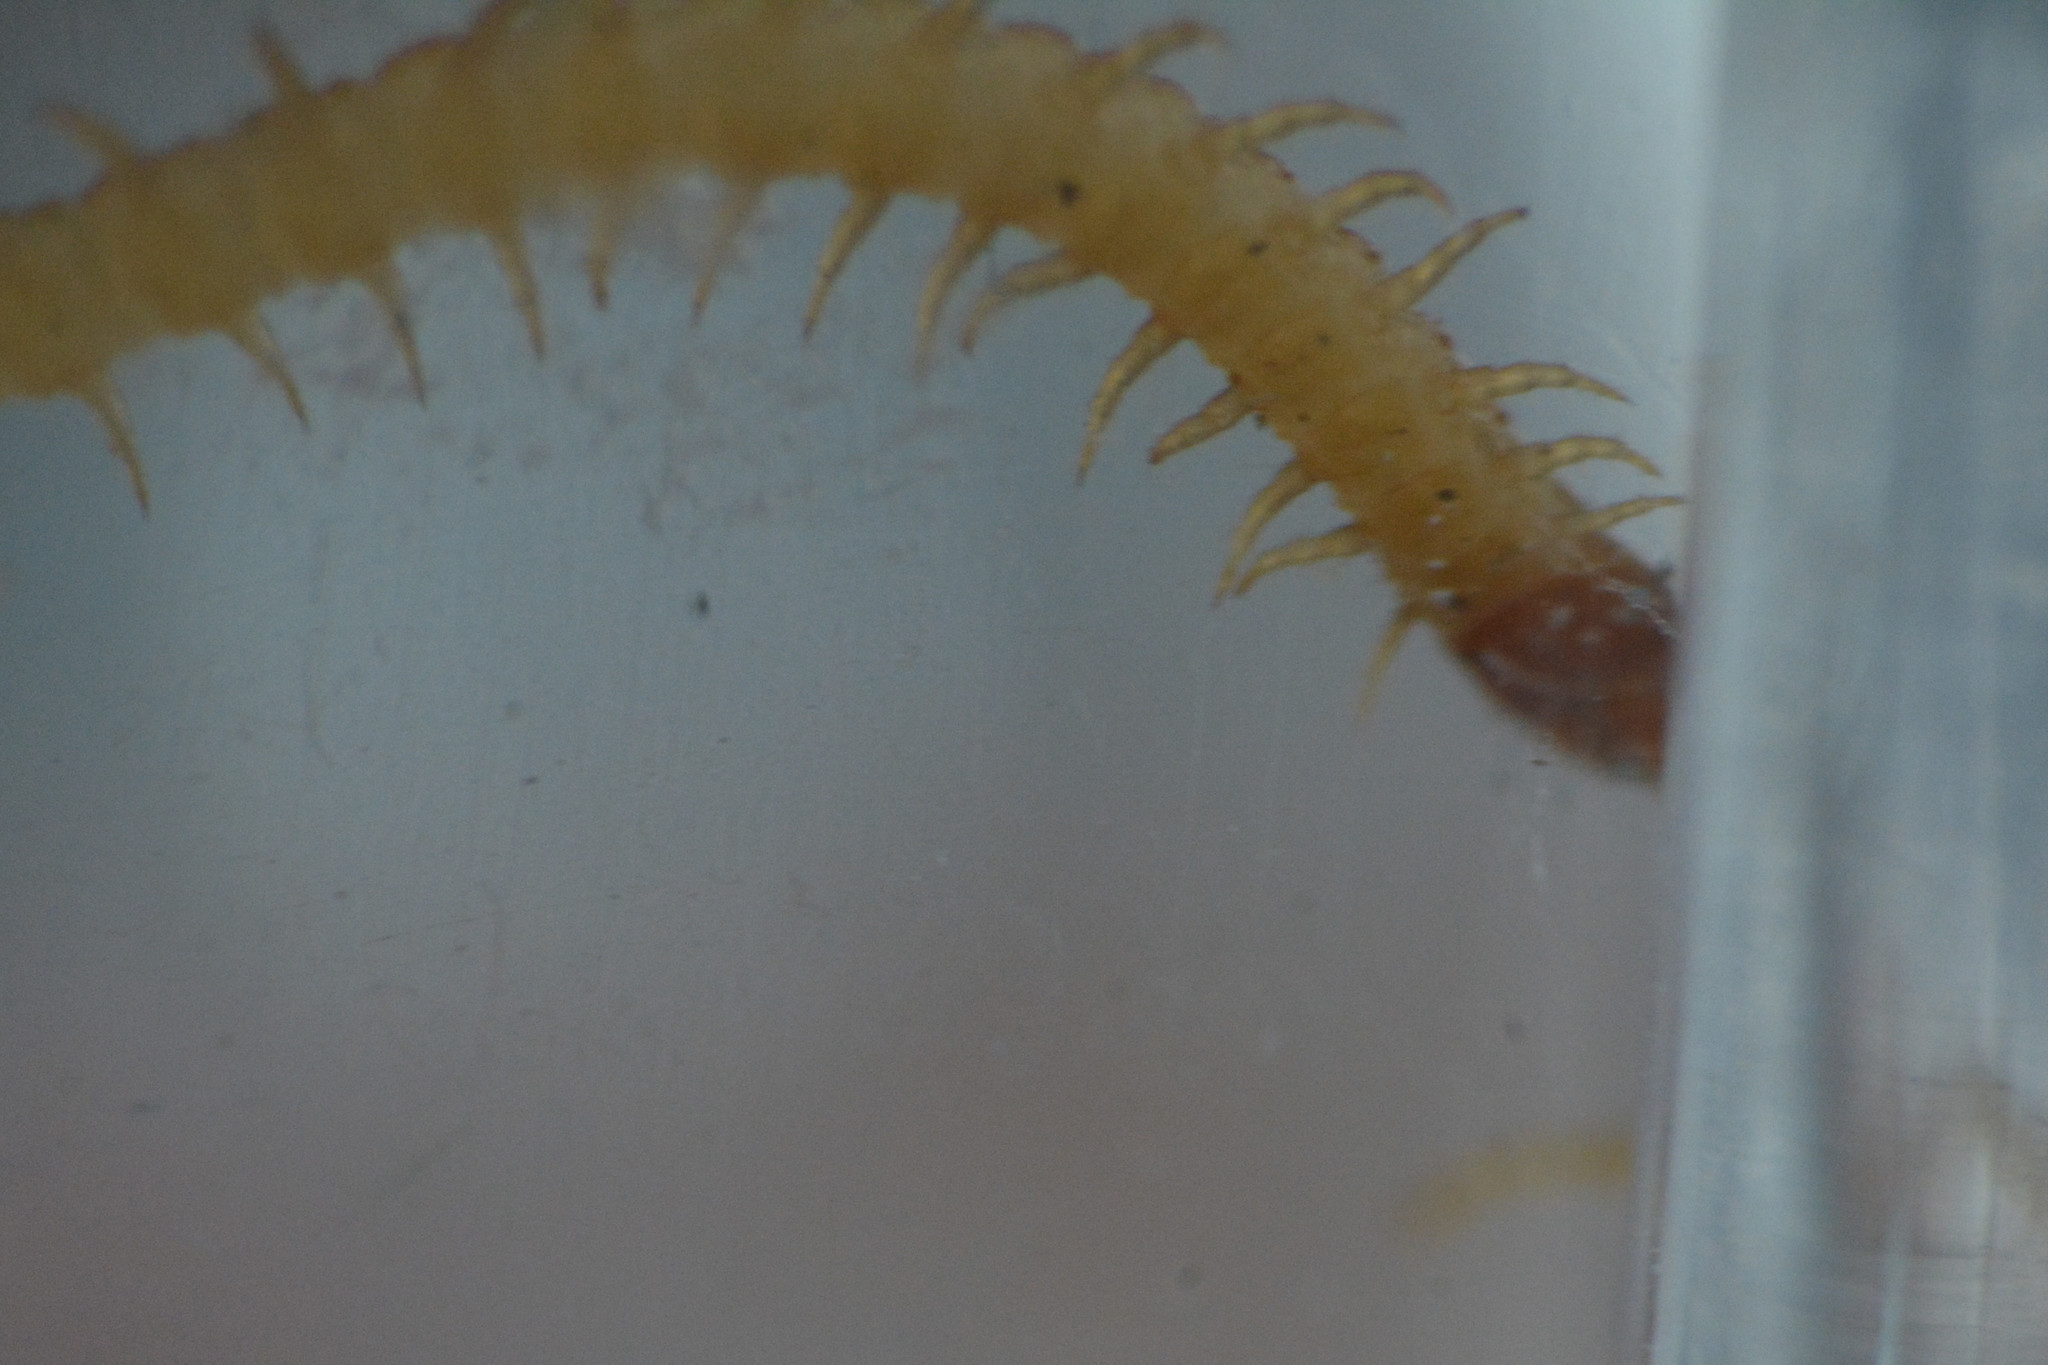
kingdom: Animalia
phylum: Arthropoda
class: Chilopoda
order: Geophilomorpha
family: Geophilidae
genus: Geophilus
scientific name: Geophilus flavus
